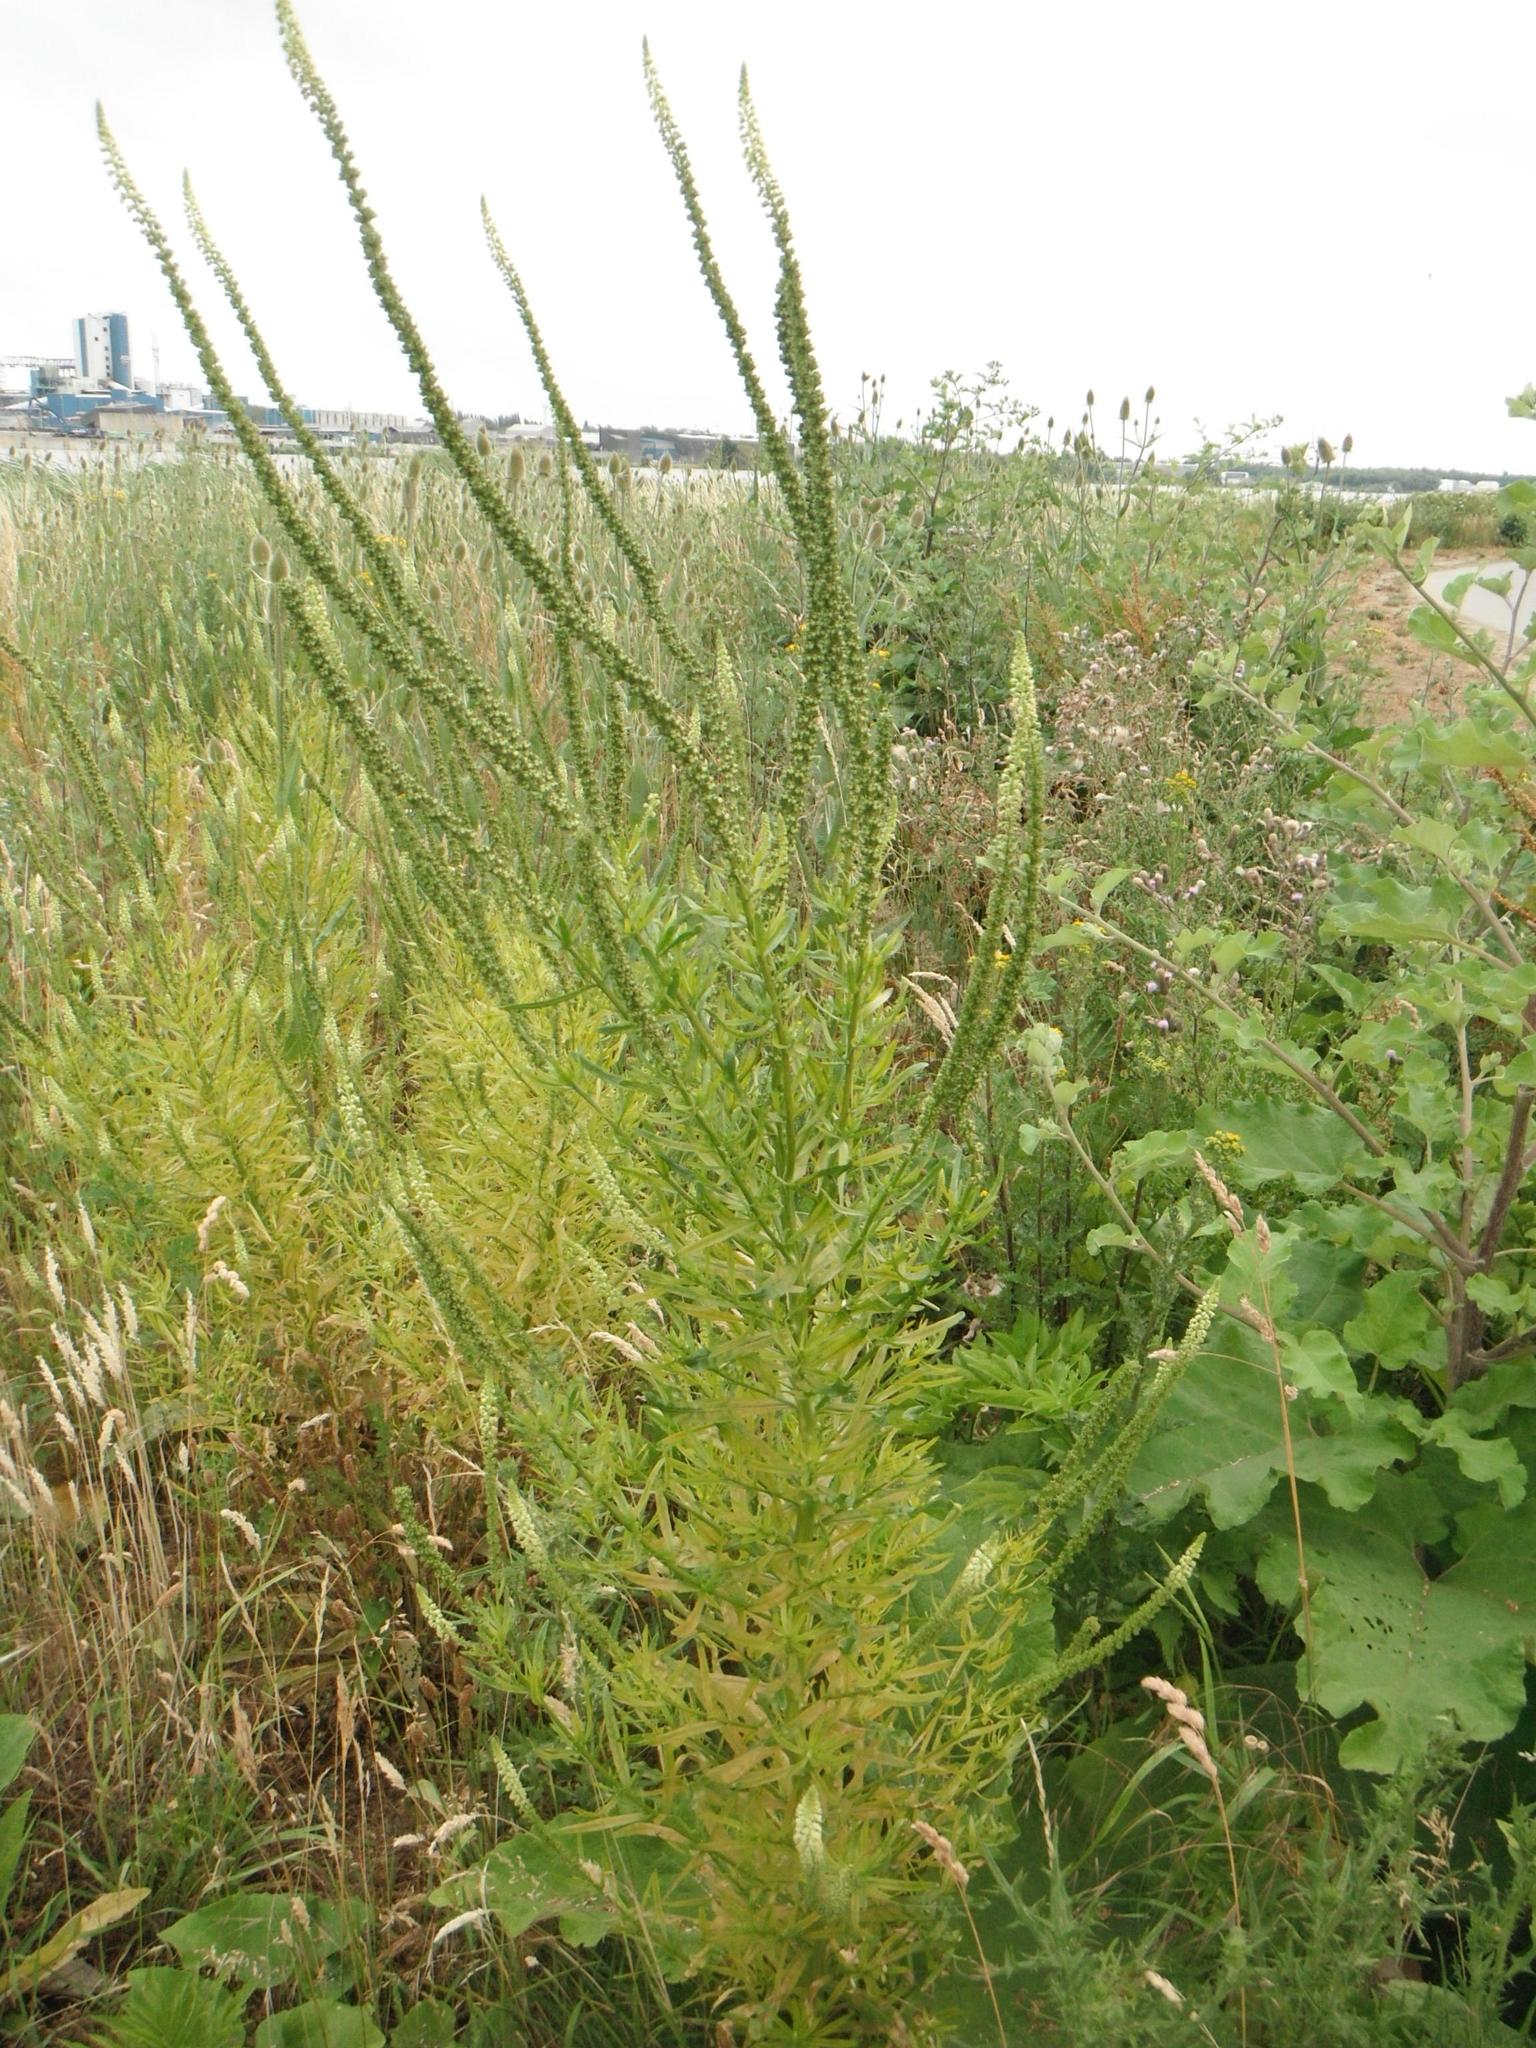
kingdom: Plantae
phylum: Tracheophyta
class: Magnoliopsida
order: Brassicales
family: Resedaceae
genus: Reseda
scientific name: Reseda luteola
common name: Weld
